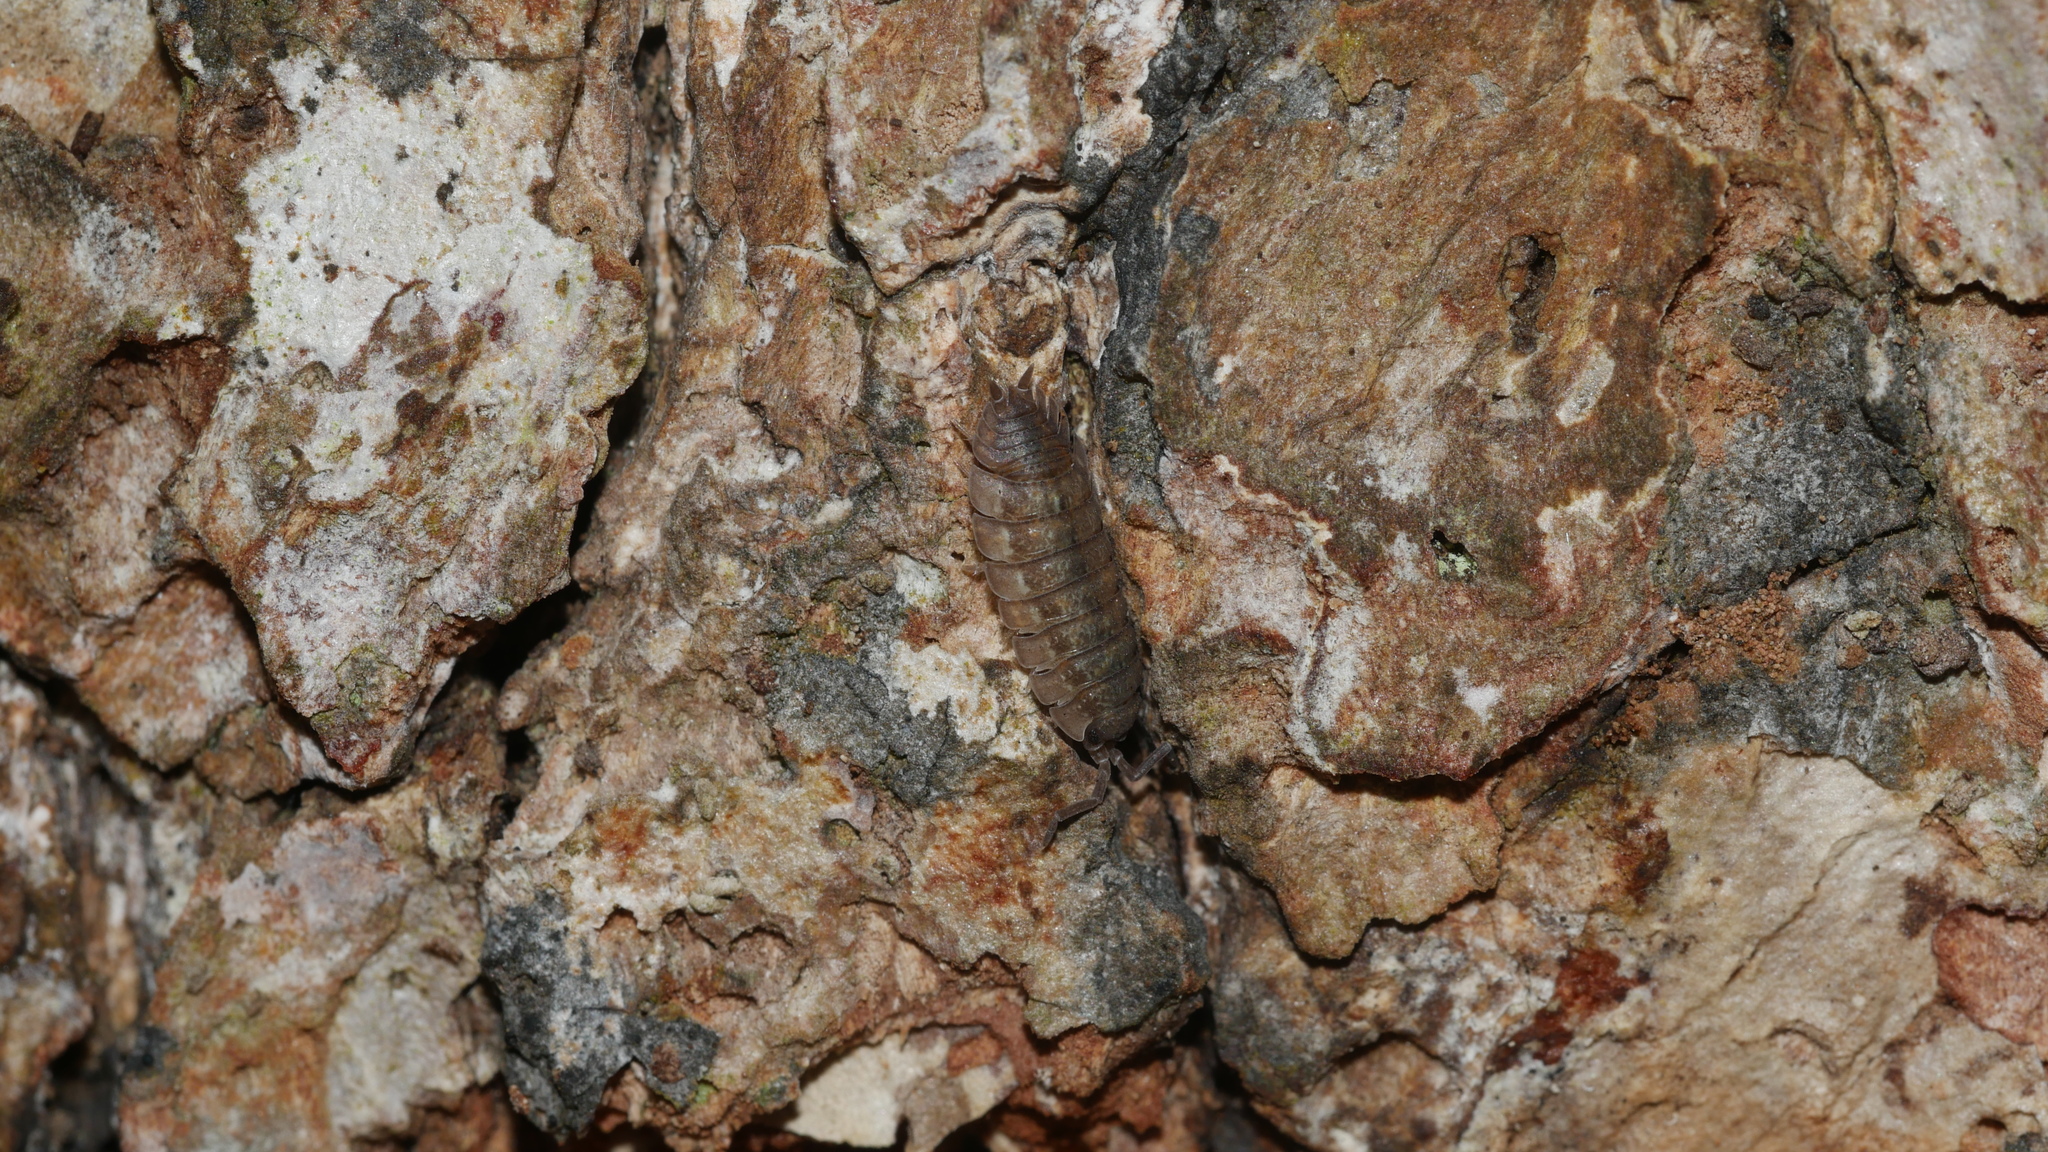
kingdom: Animalia
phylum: Arthropoda
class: Malacostraca
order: Isopoda
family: Porcellionidae
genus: Porcellio
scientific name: Porcellio scaber
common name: Common rough woodlouse
